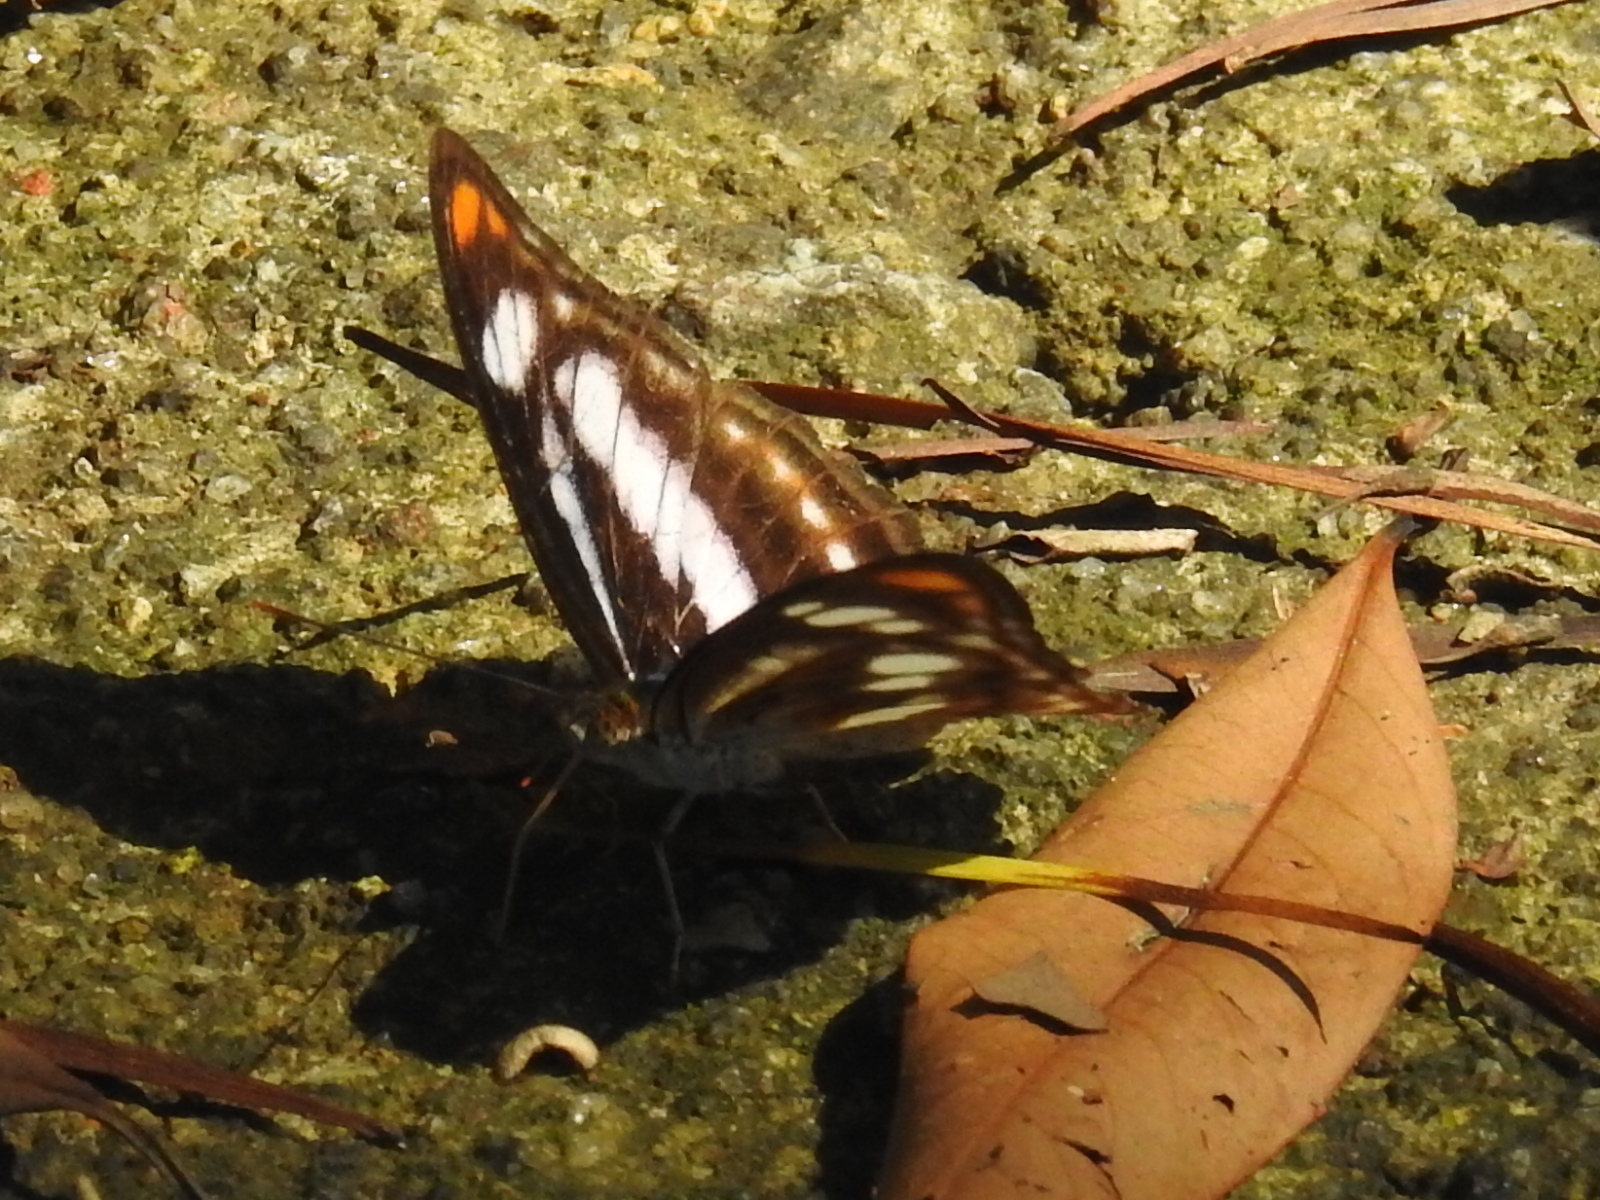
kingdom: Animalia
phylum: Arthropoda
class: Insecta
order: Lepidoptera
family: Nymphalidae
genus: Parathyma
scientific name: Parathyma nefte
